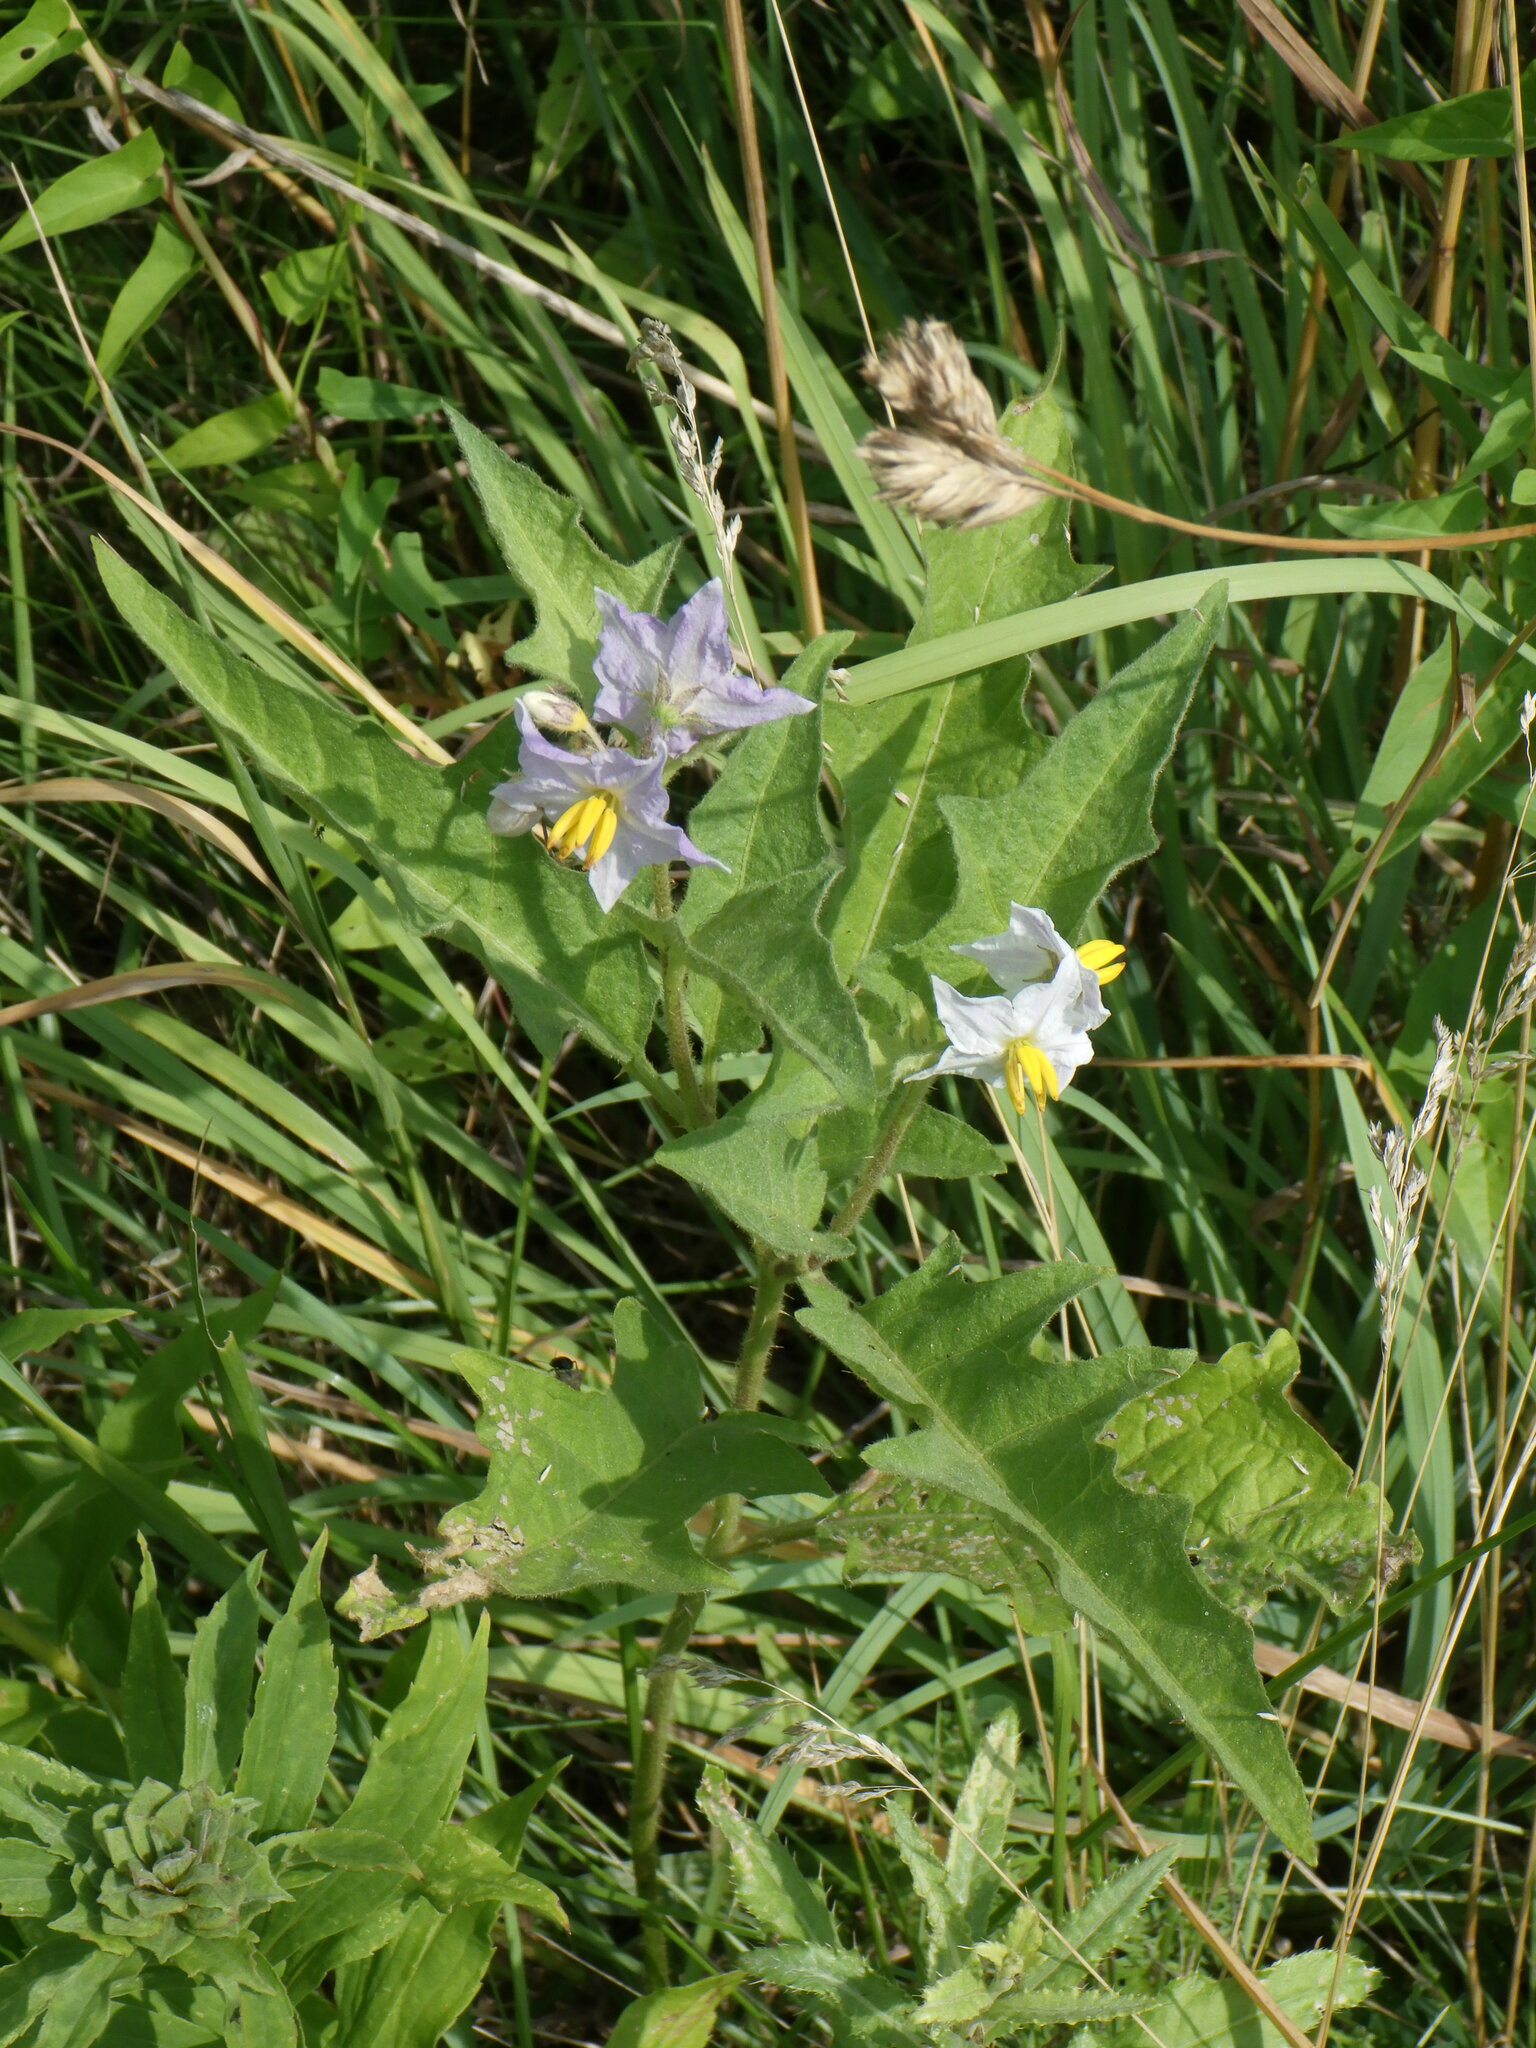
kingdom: Plantae
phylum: Tracheophyta
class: Magnoliopsida
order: Solanales
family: Solanaceae
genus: Solanum
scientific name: Solanum carolinense
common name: Horse-nettle
